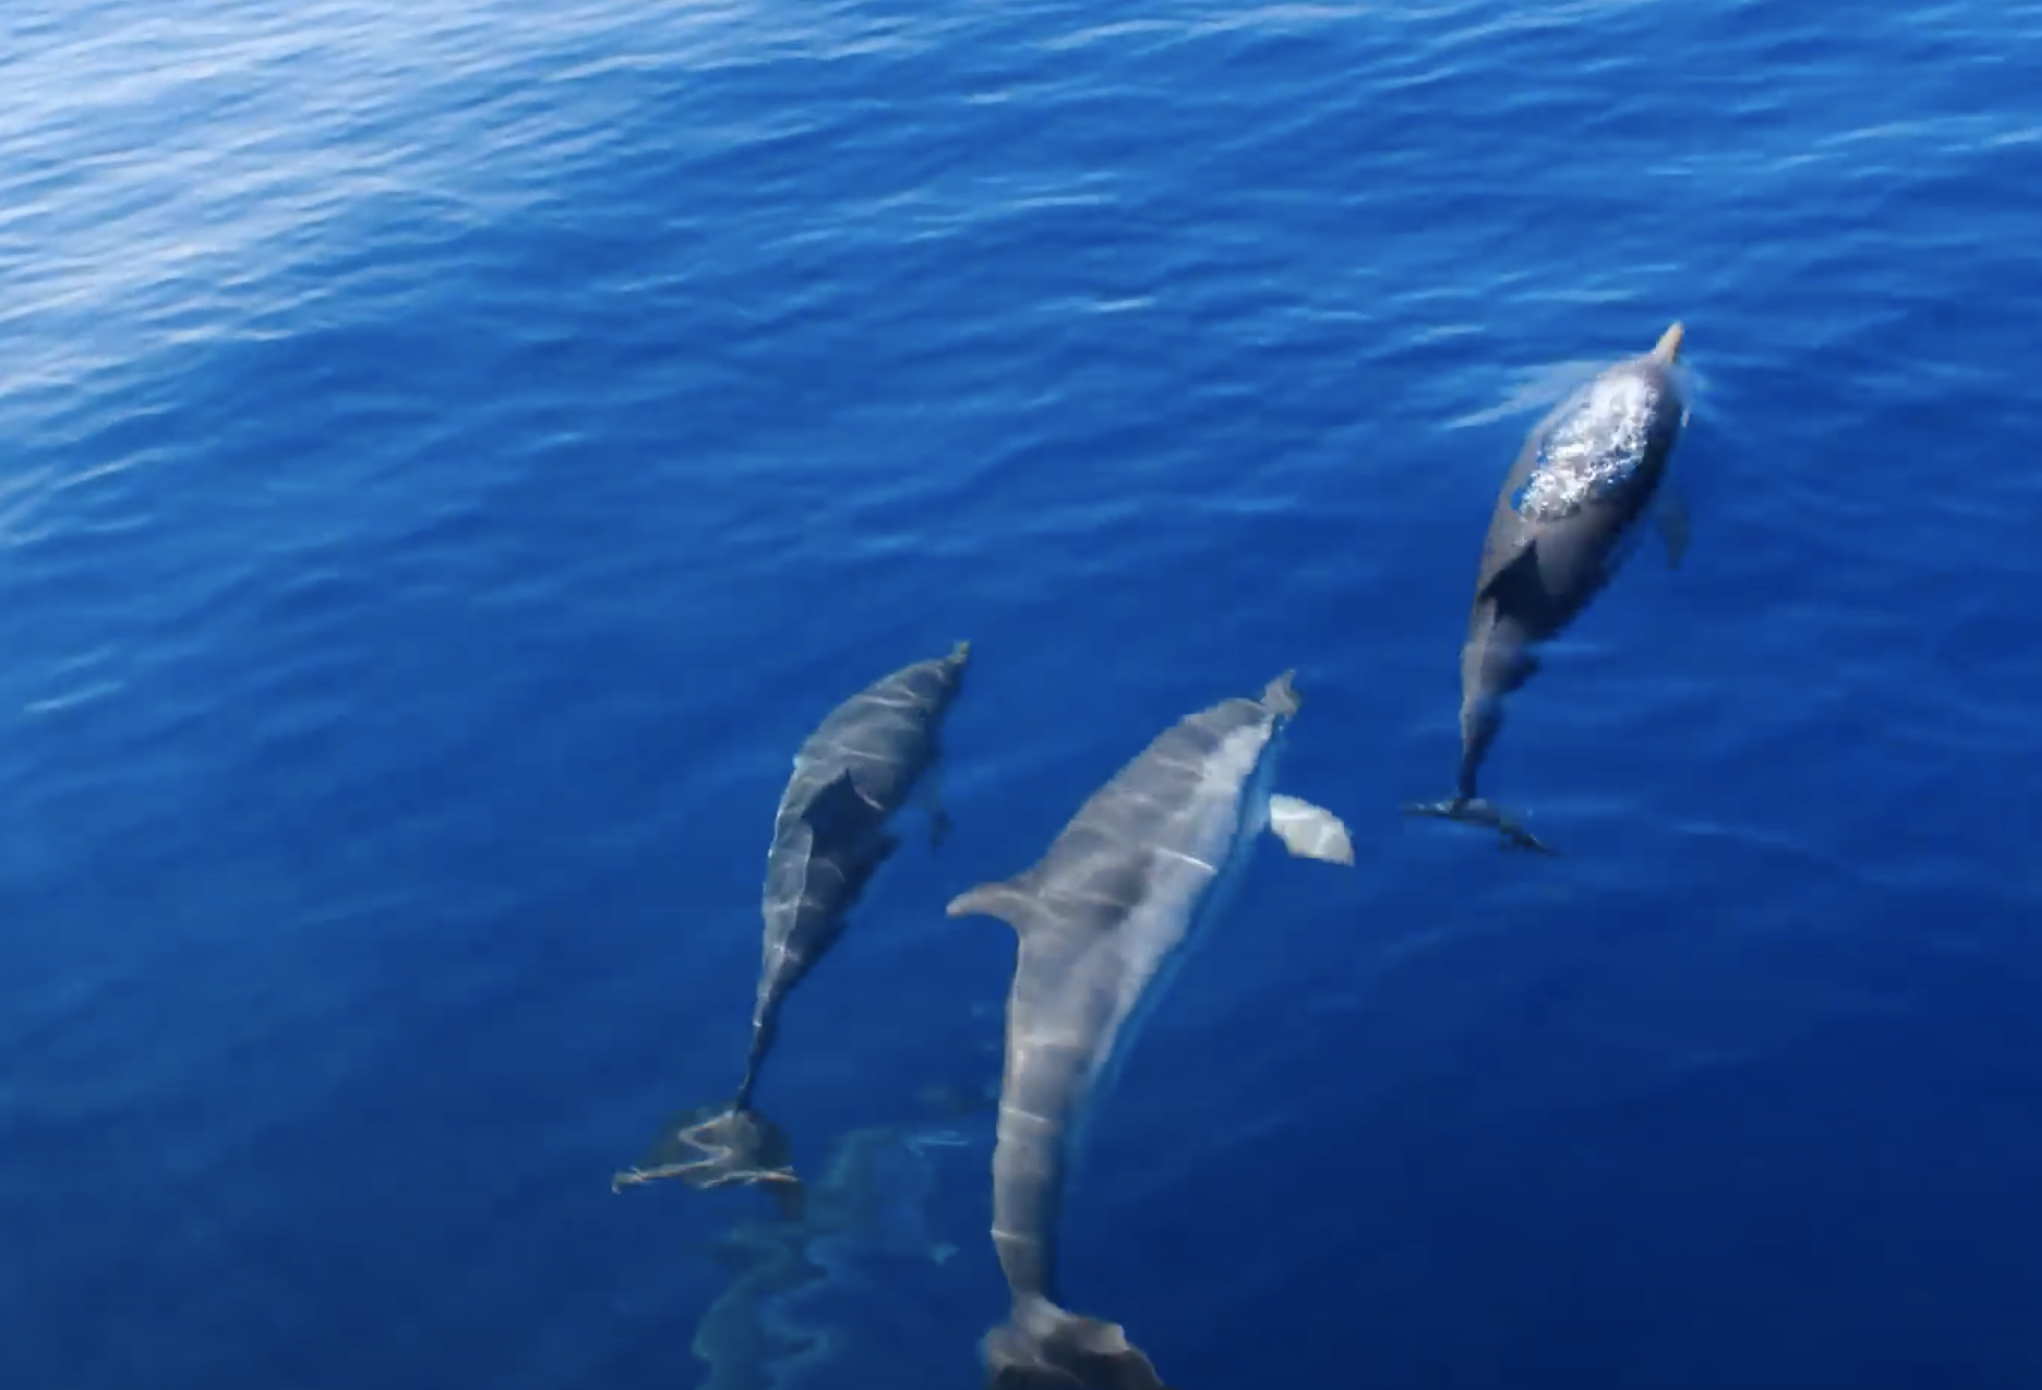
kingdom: Animalia
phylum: Chordata
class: Mammalia
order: Cetacea
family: Delphinidae
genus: Stenella
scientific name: Stenella coeruleoalba
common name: Striped dolphin
